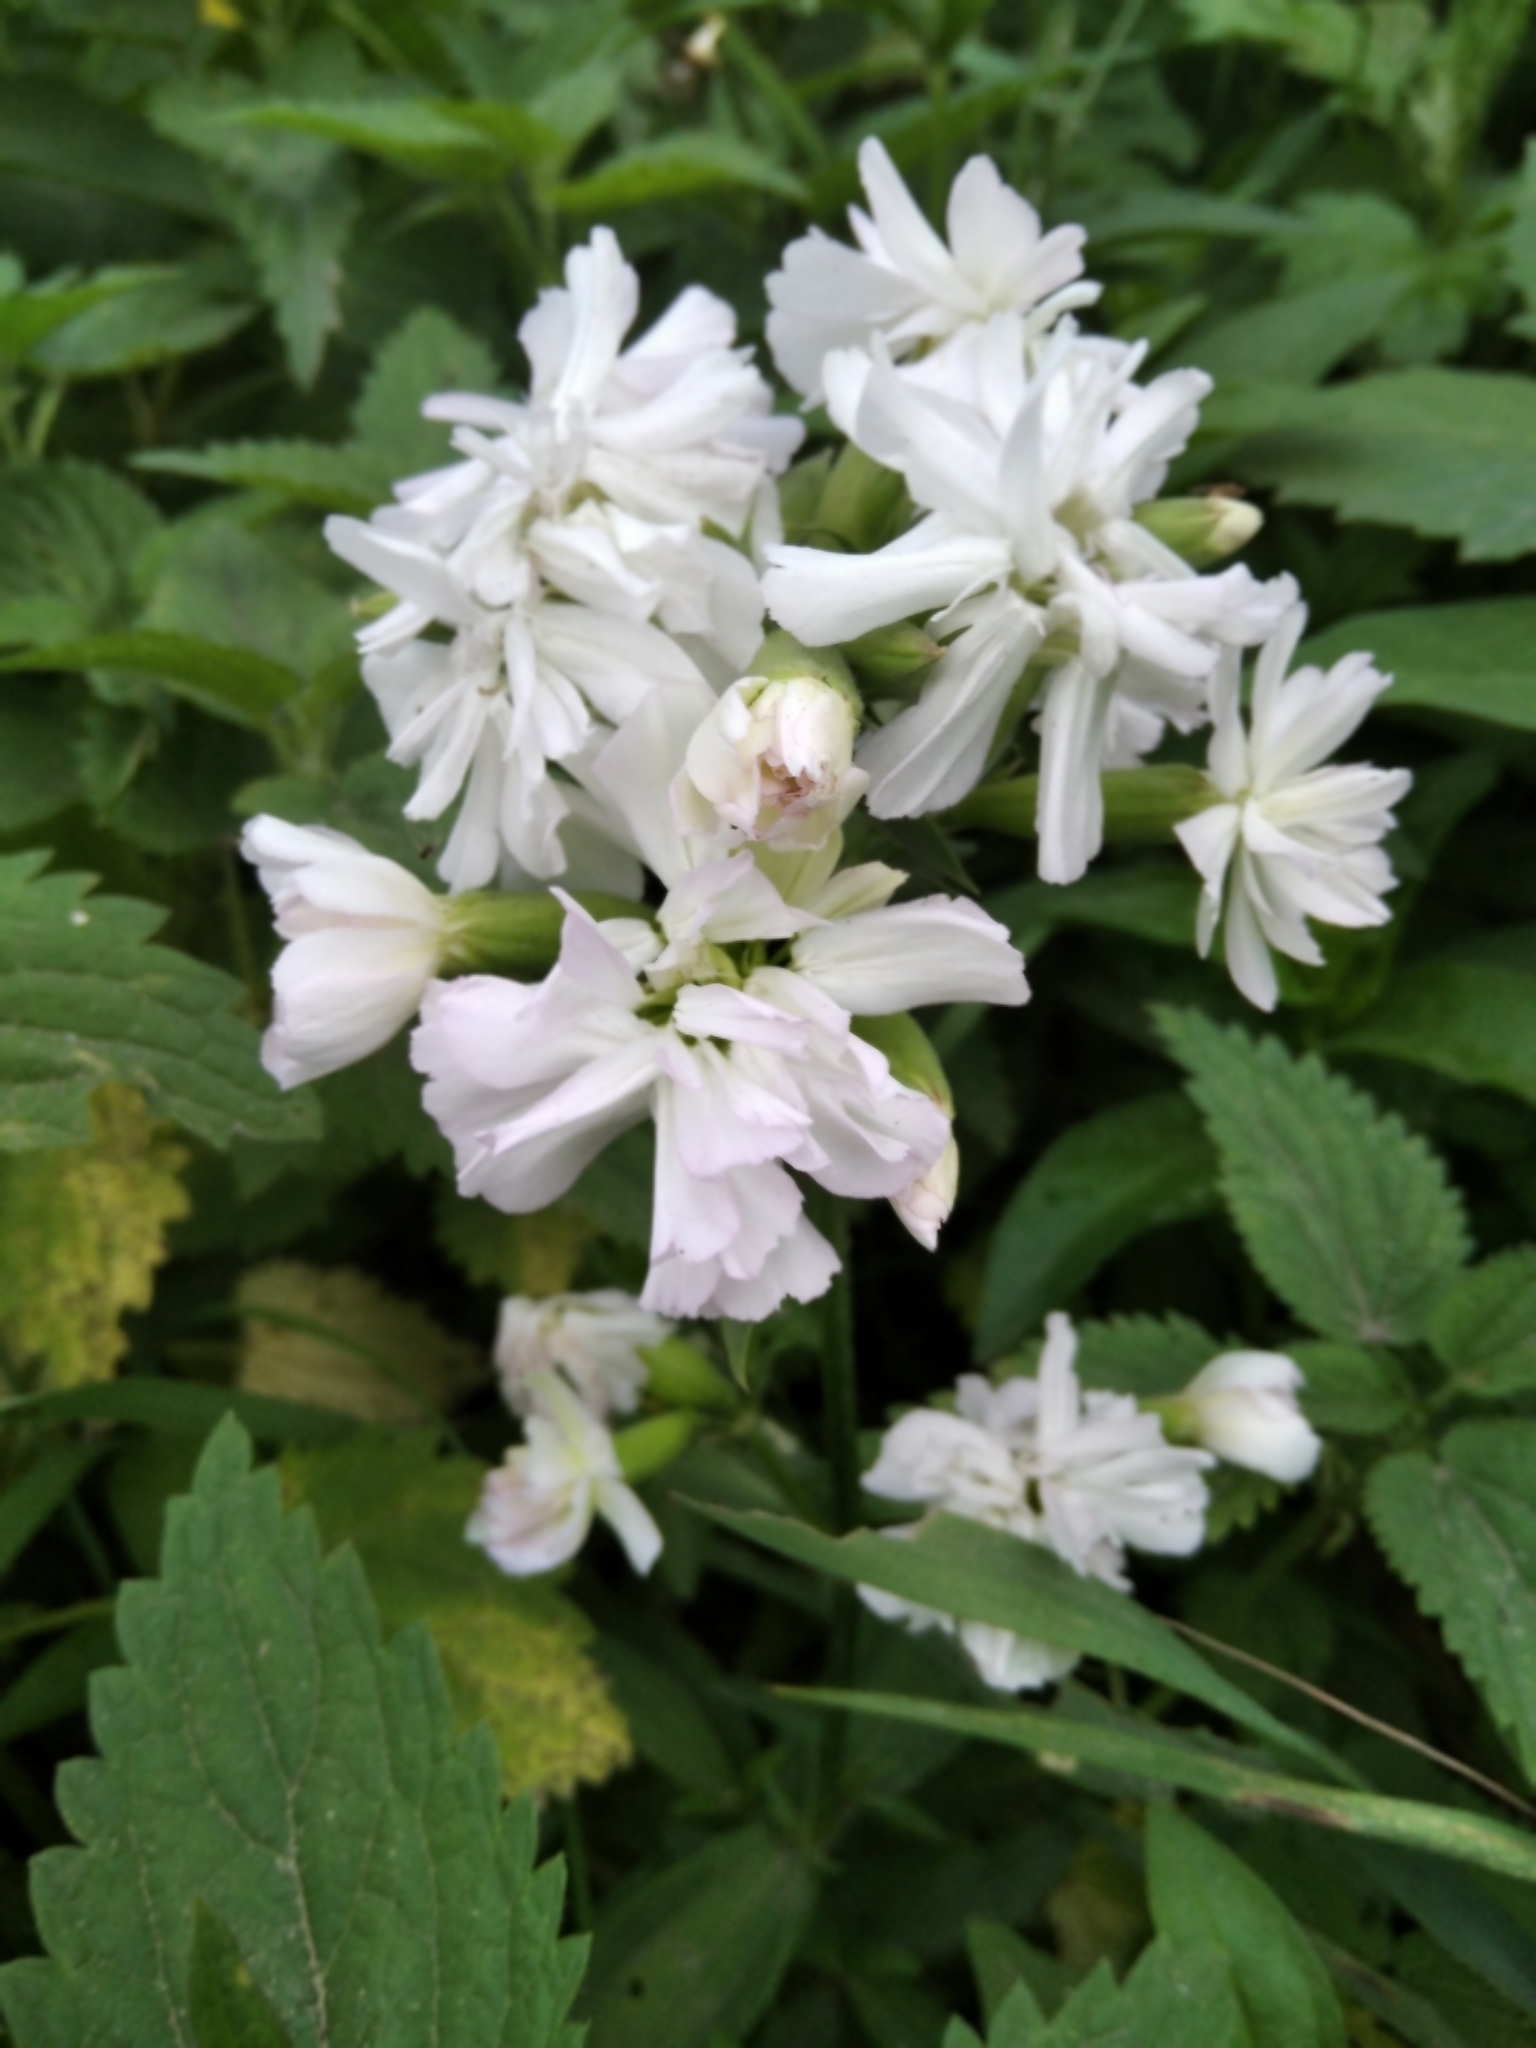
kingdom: Plantae
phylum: Tracheophyta
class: Magnoliopsida
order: Caryophyllales
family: Caryophyllaceae
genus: Saponaria
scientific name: Saponaria officinalis
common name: Soapwort
